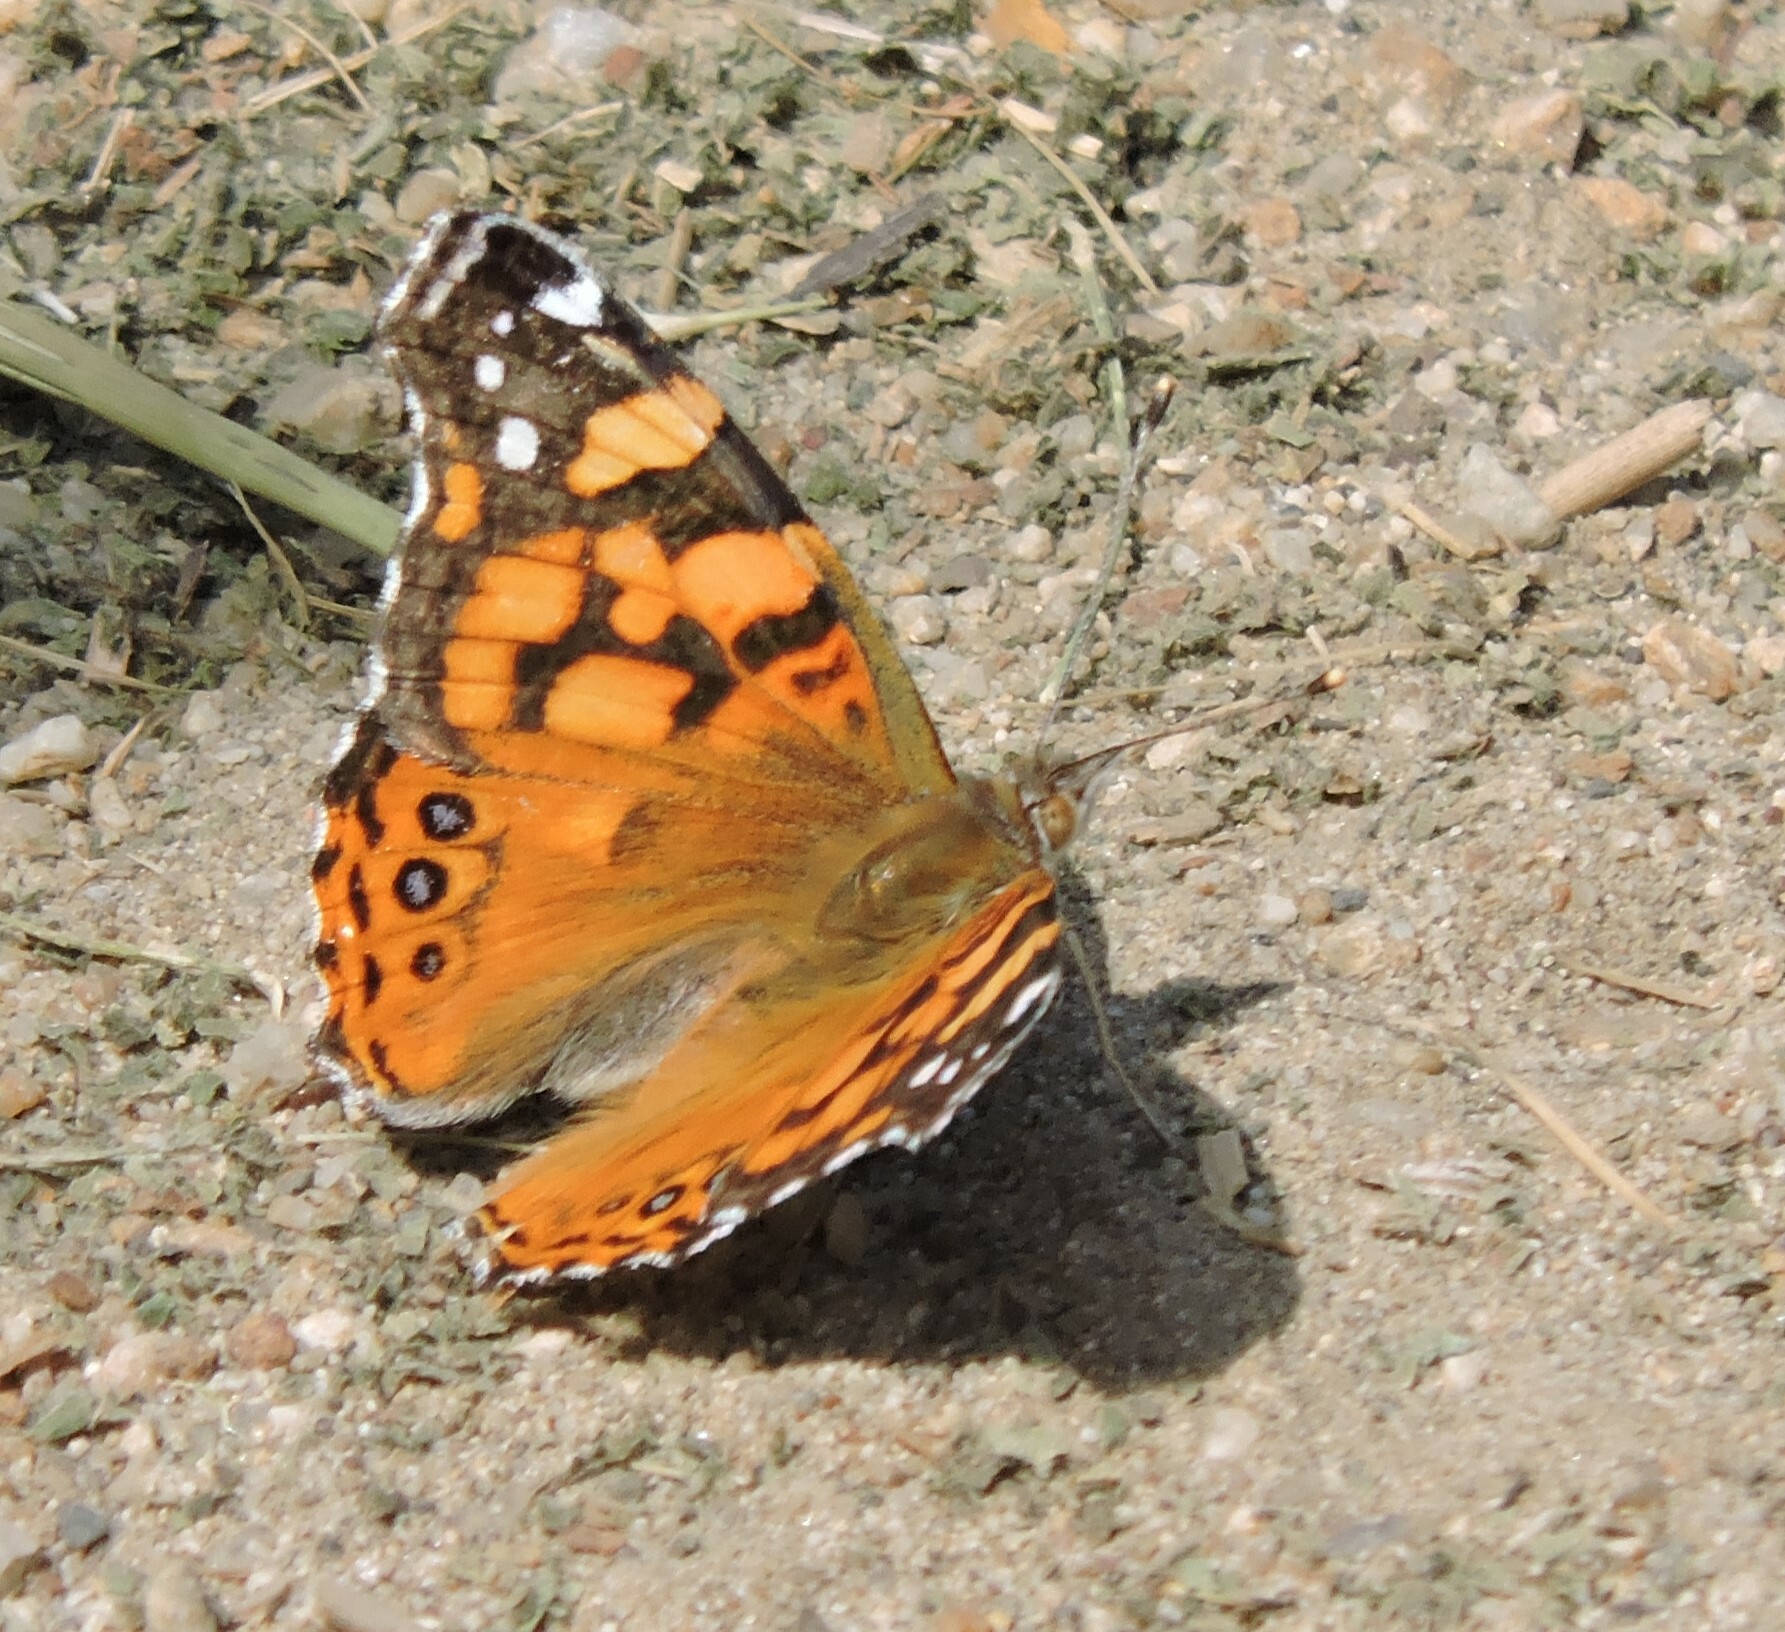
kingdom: Animalia
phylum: Arthropoda
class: Insecta
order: Lepidoptera
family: Nymphalidae
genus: Vanessa
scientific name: Vanessa annabella
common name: West coast lady
